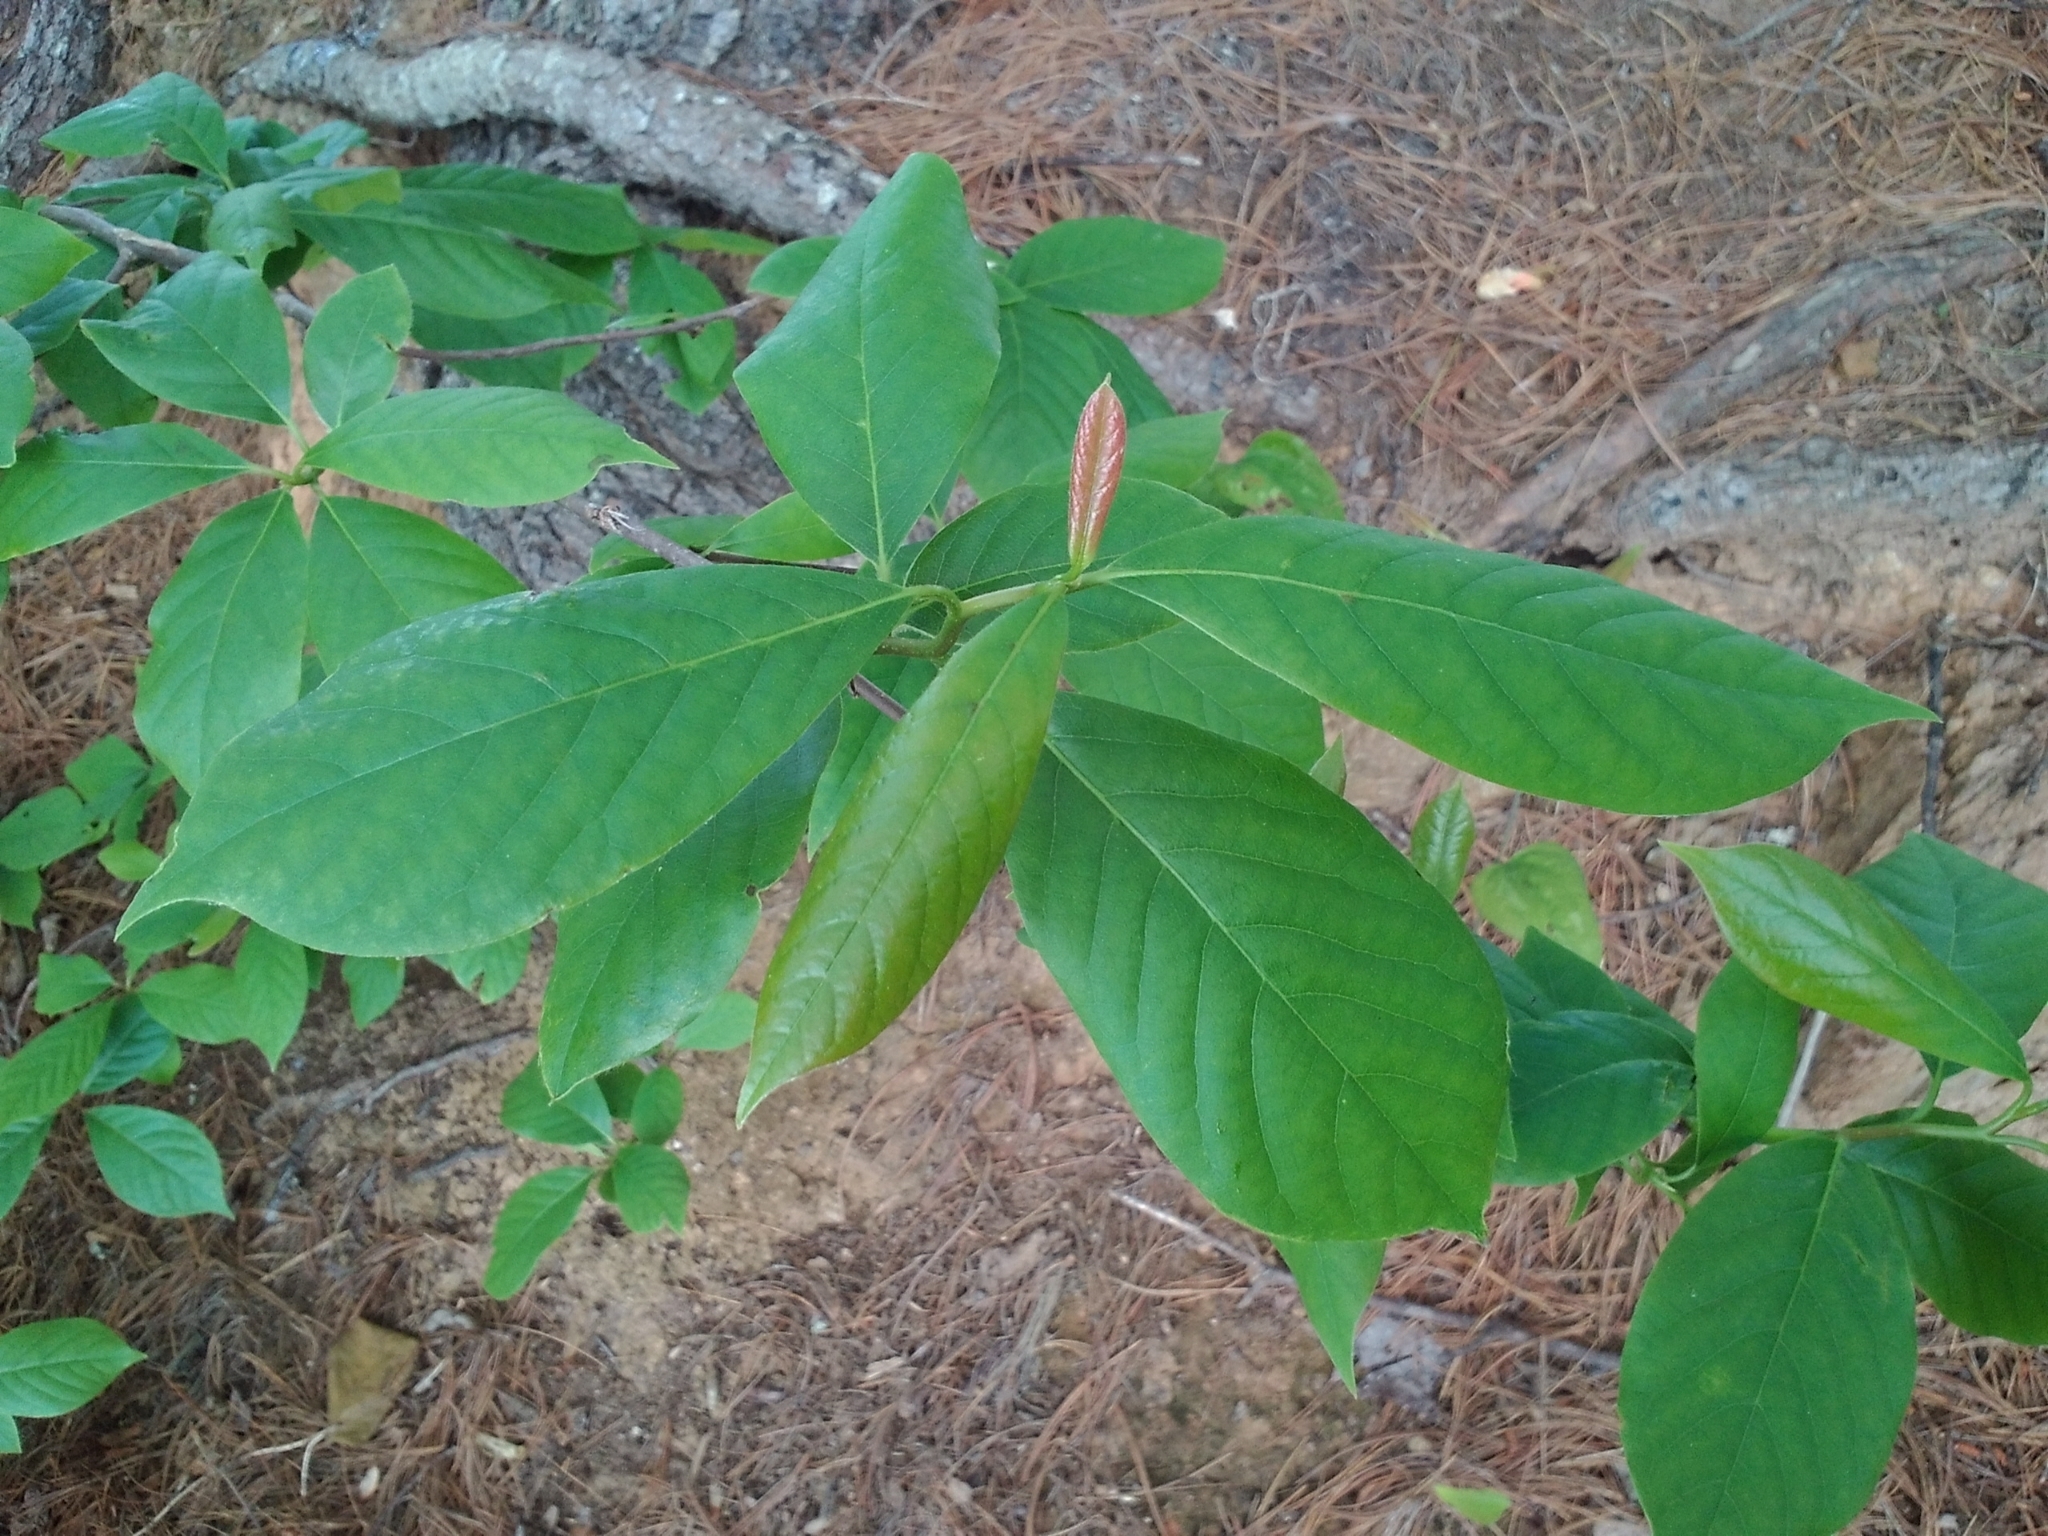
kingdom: Plantae
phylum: Tracheophyta
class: Magnoliopsida
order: Cornales
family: Nyssaceae
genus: Nyssa
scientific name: Nyssa sylvatica
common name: Black tupelo
